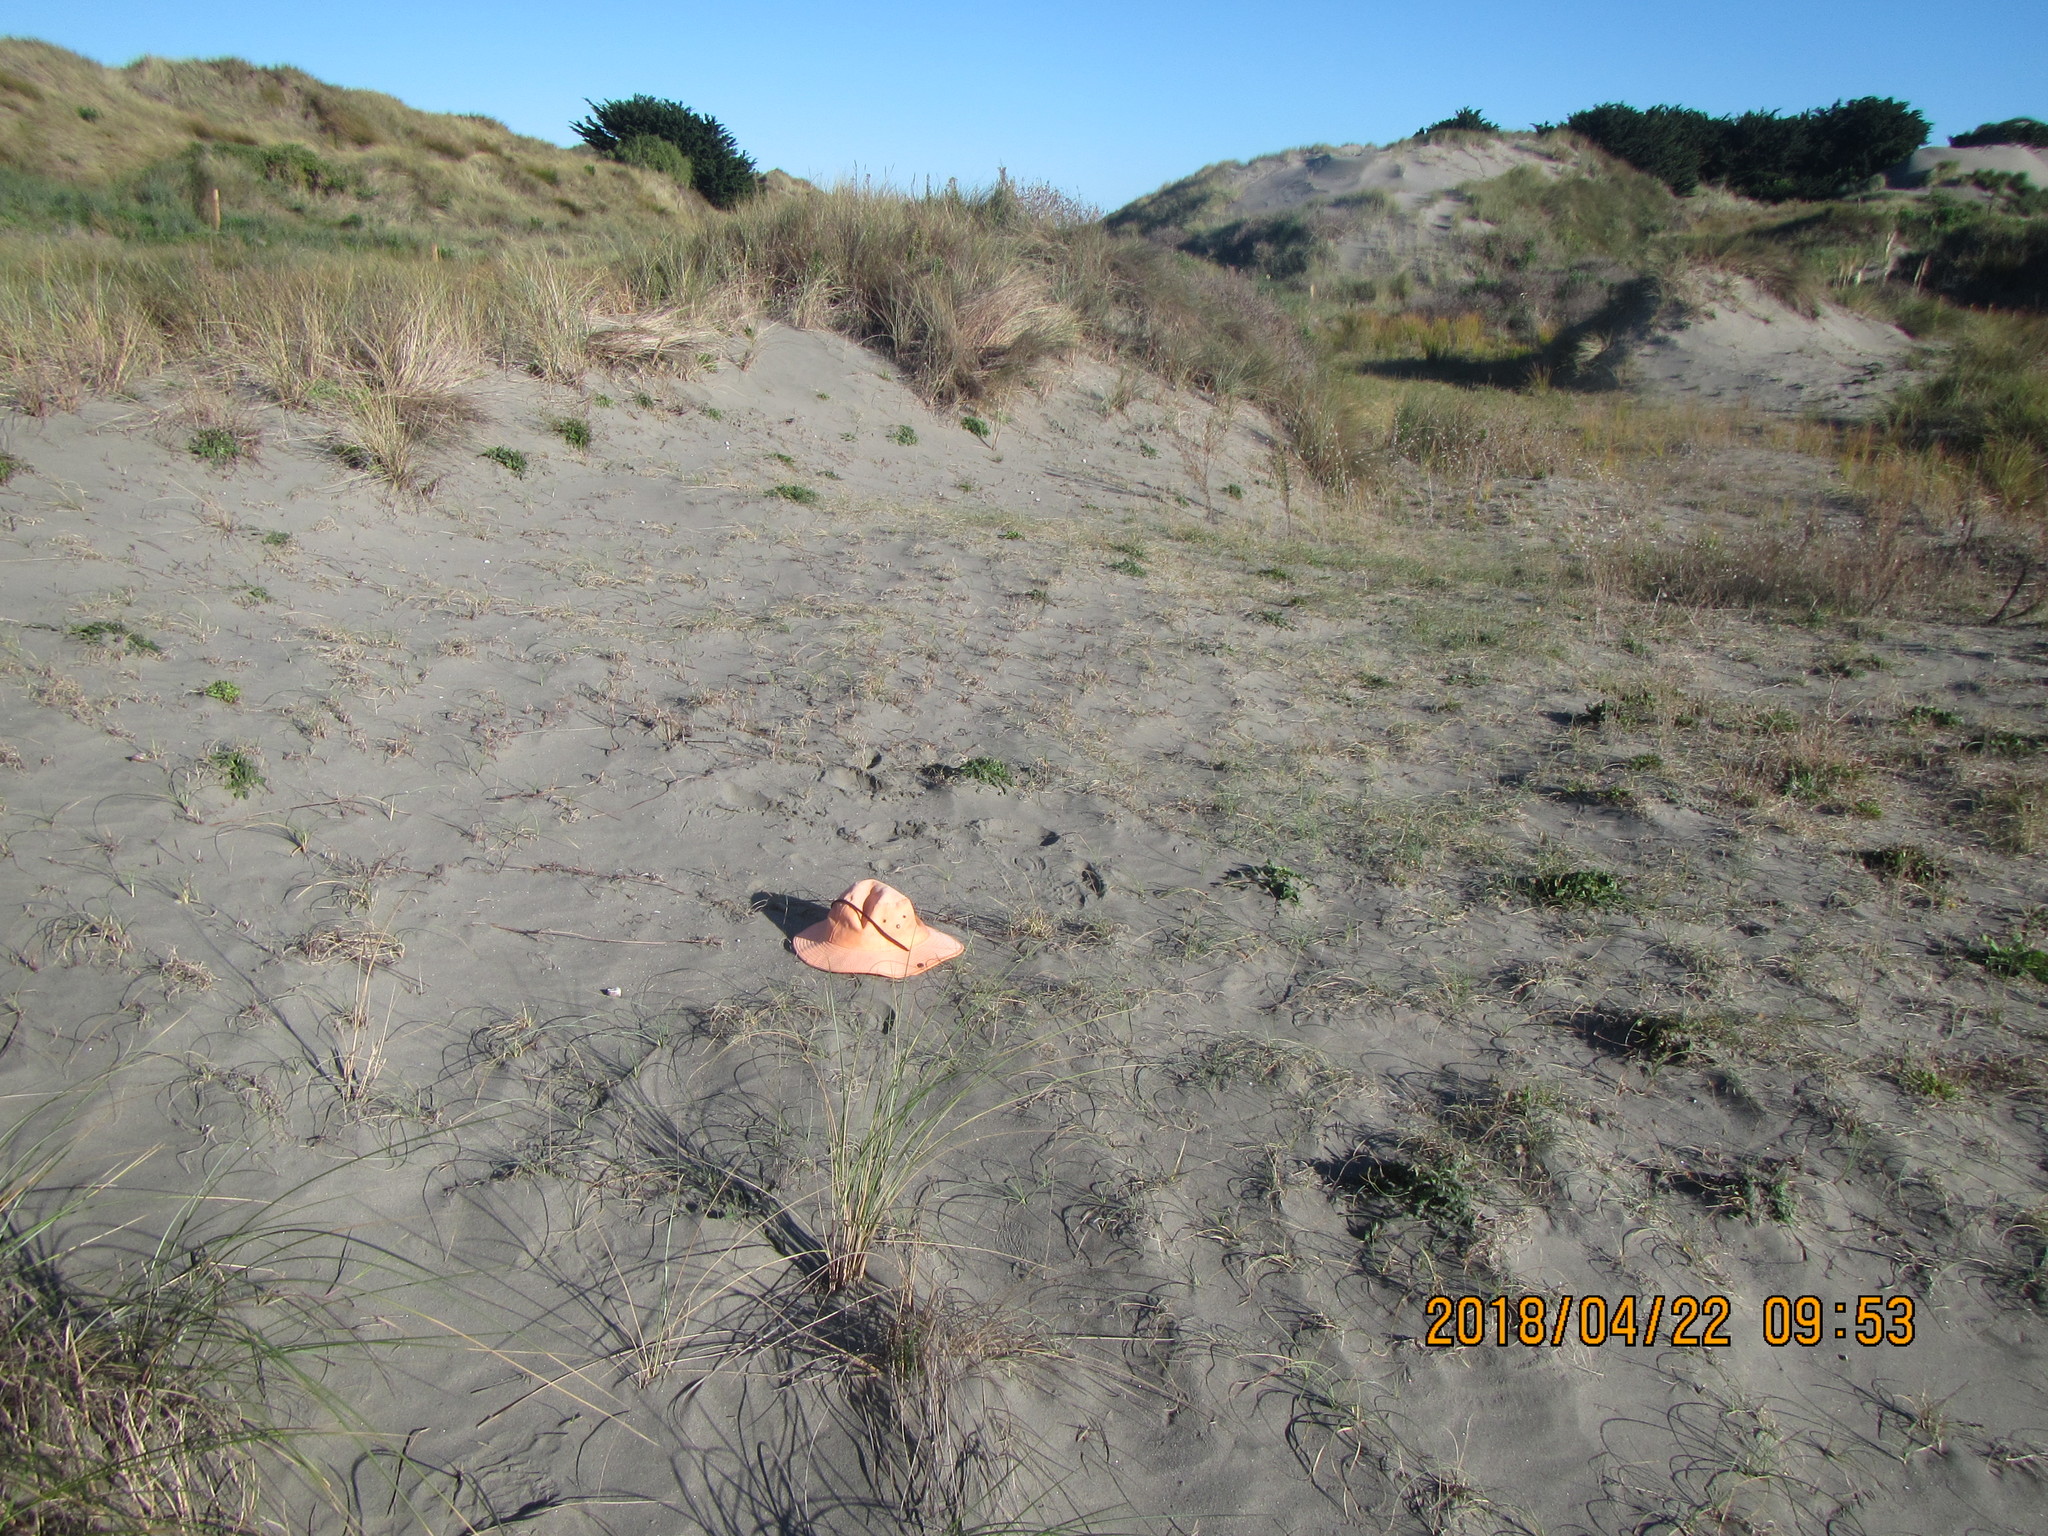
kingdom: Animalia
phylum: Arthropoda
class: Arachnida
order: Opiliones
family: Phalangiidae
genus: Phalangium
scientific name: Phalangium opilio
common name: Daddy longleg
